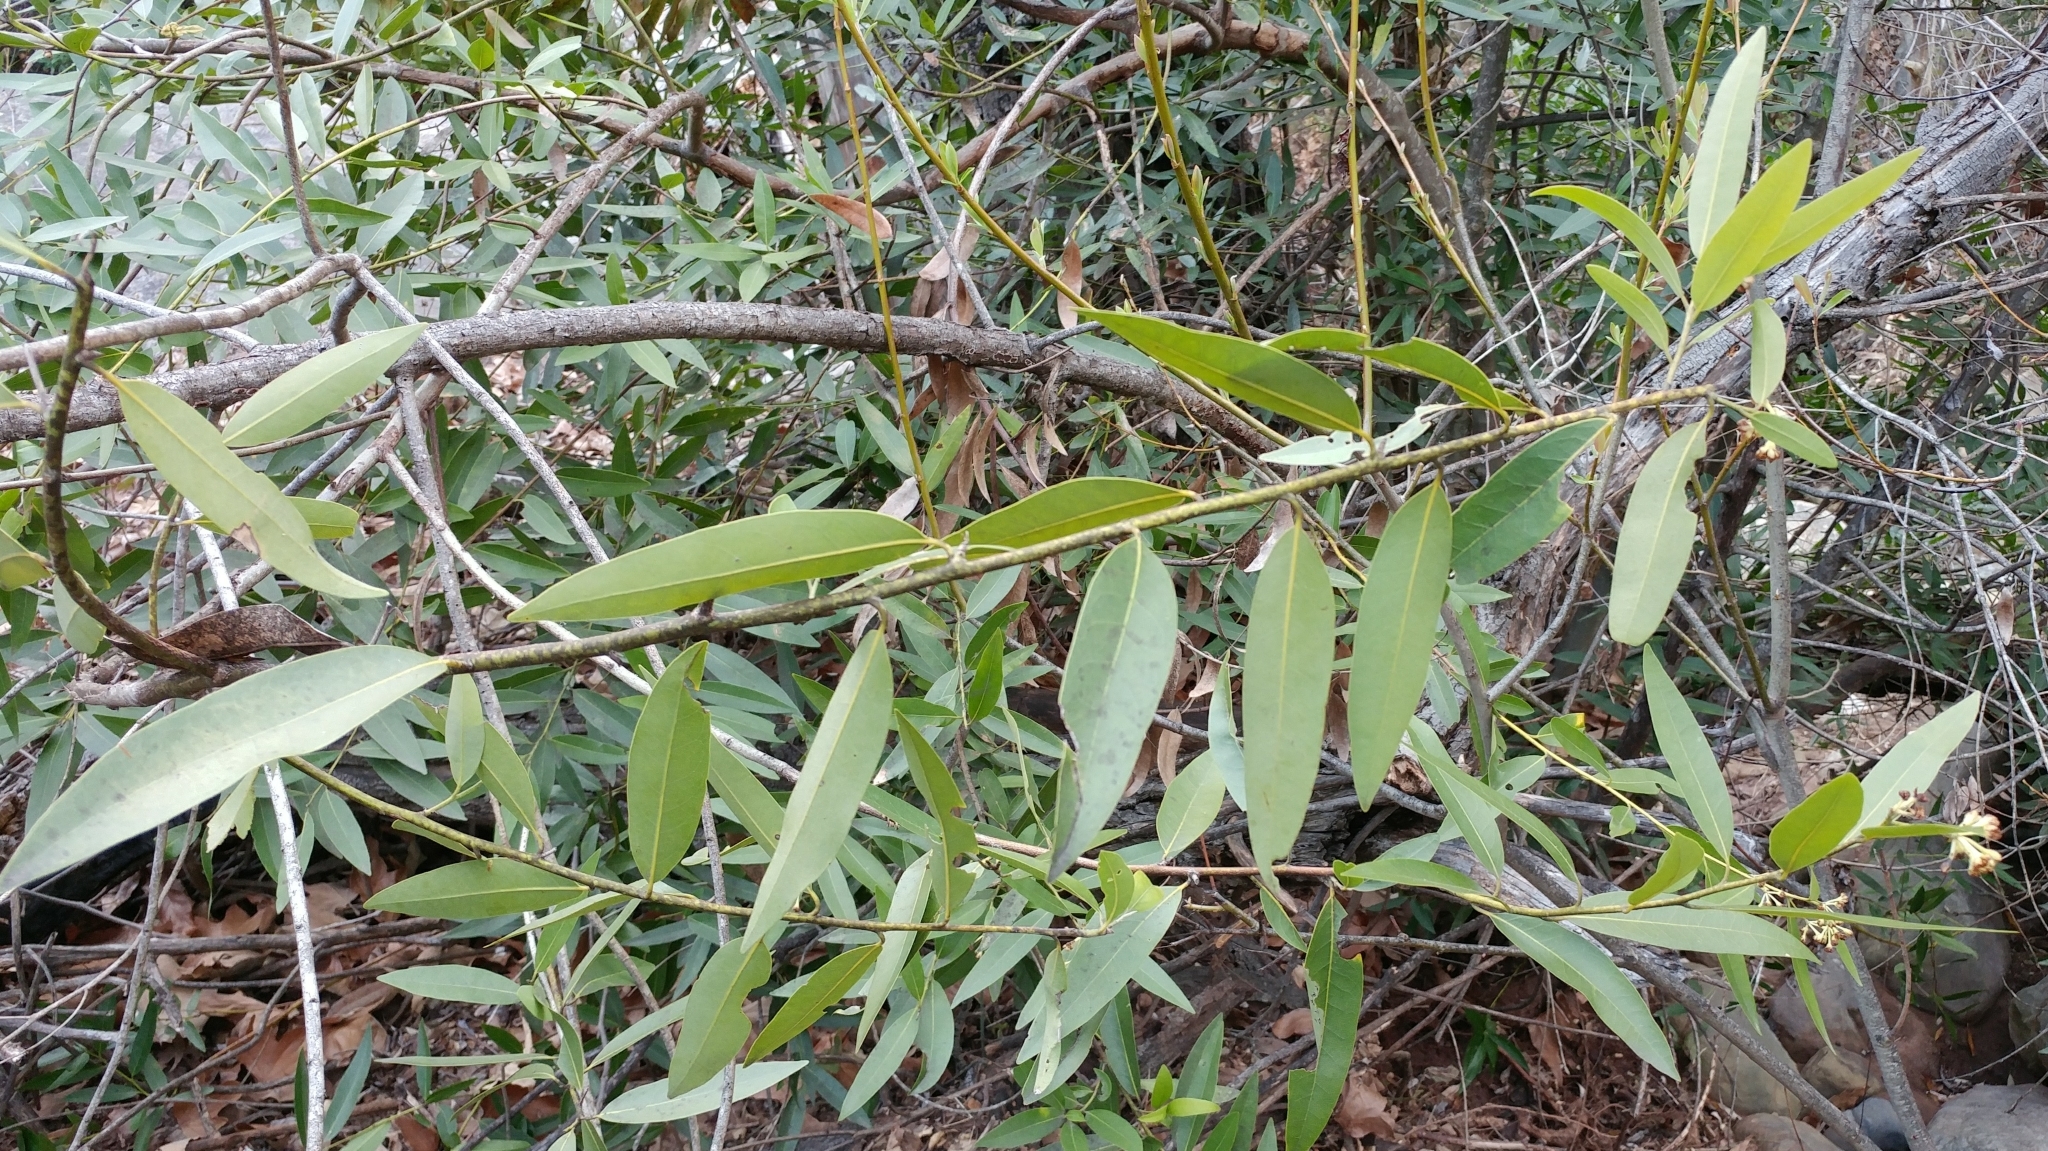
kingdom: Plantae
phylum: Tracheophyta
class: Magnoliopsida
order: Laurales
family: Lauraceae
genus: Umbellularia
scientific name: Umbellularia californica
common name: California bay
